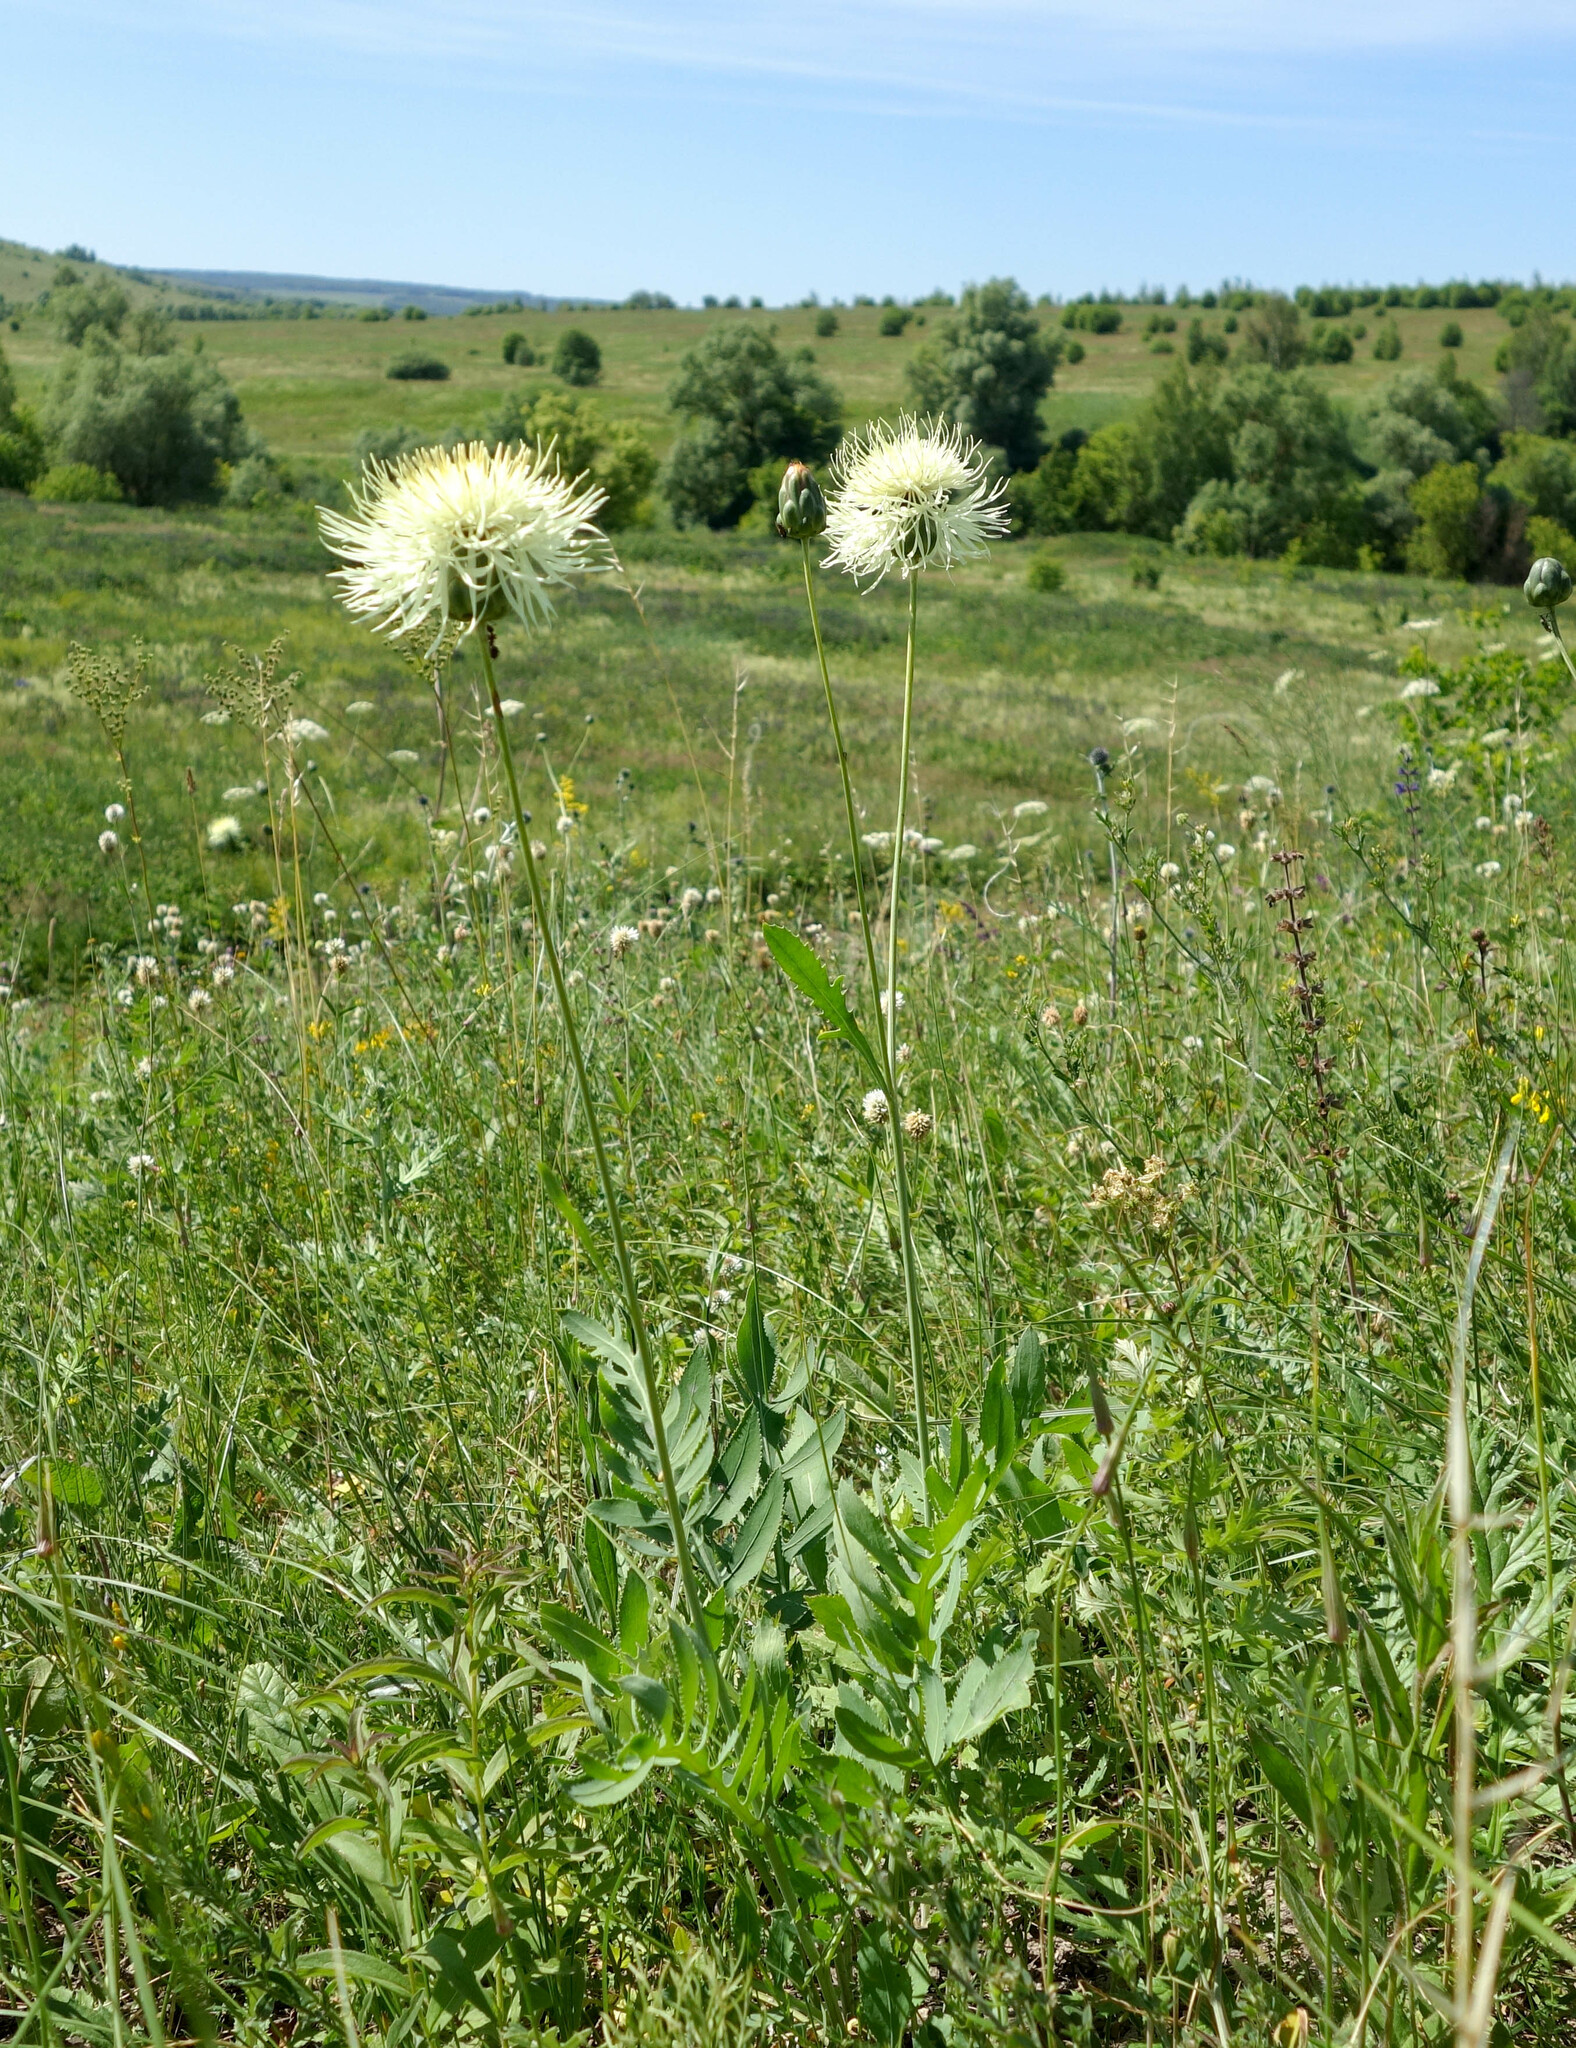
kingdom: Plantae
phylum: Tracheophyta
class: Magnoliopsida
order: Asterales
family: Asteraceae
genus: Rhaponticoides
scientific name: Rhaponticoides ruthenica
